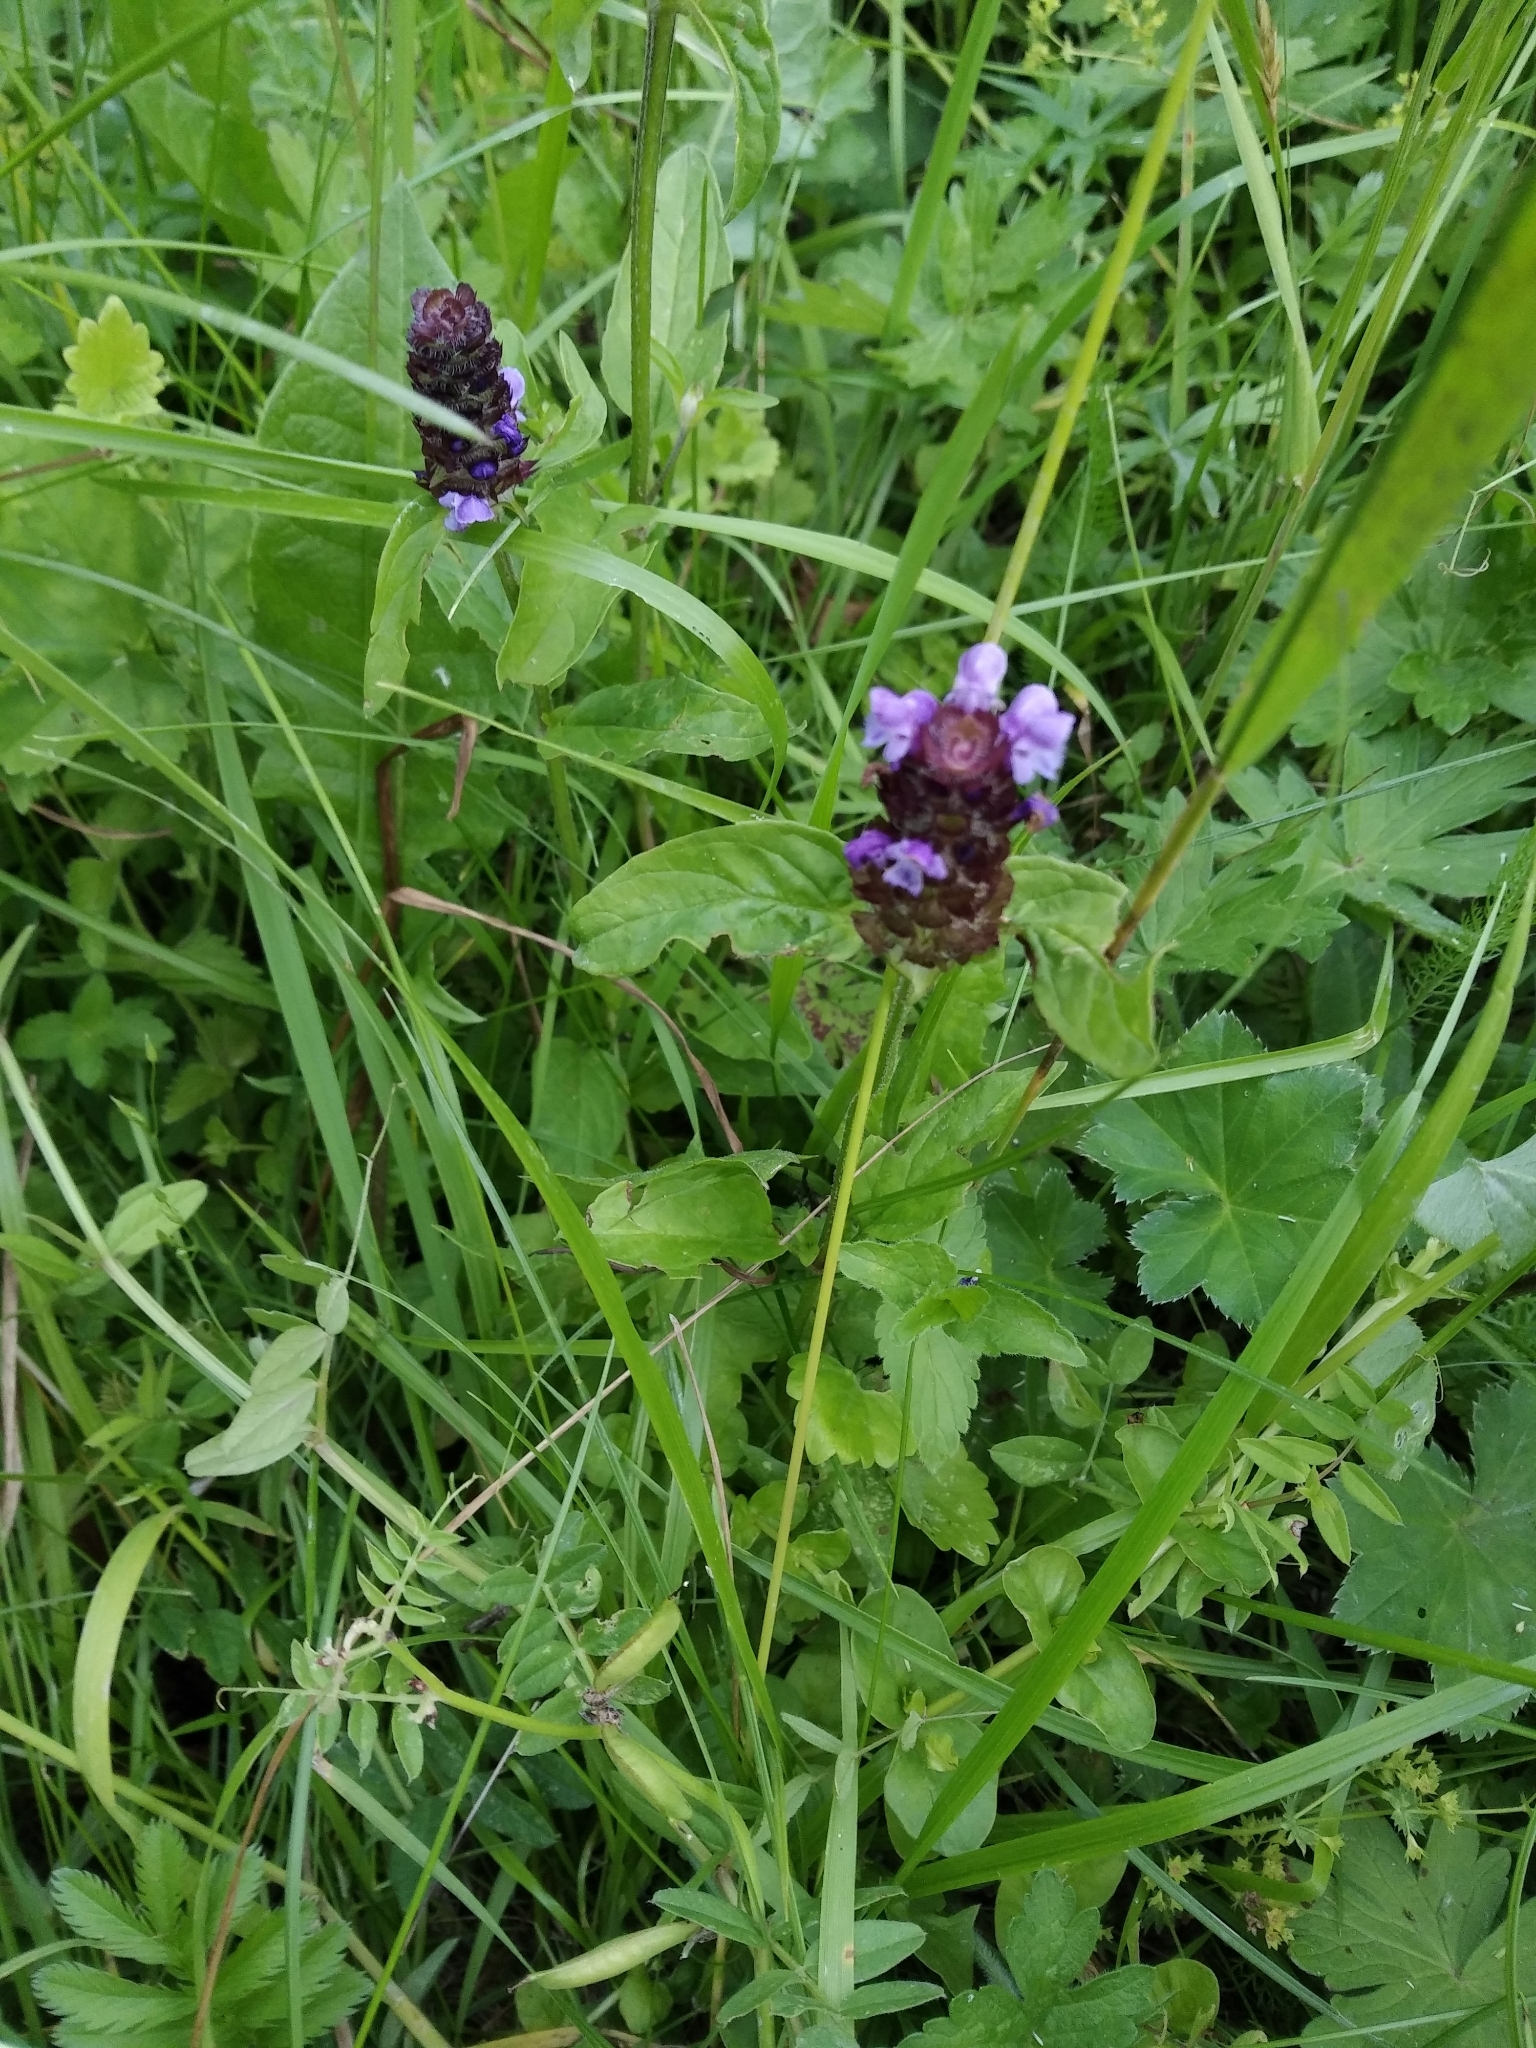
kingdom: Plantae
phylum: Tracheophyta
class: Magnoliopsida
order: Lamiales
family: Lamiaceae
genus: Prunella
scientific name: Prunella vulgaris
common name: Heal-all
